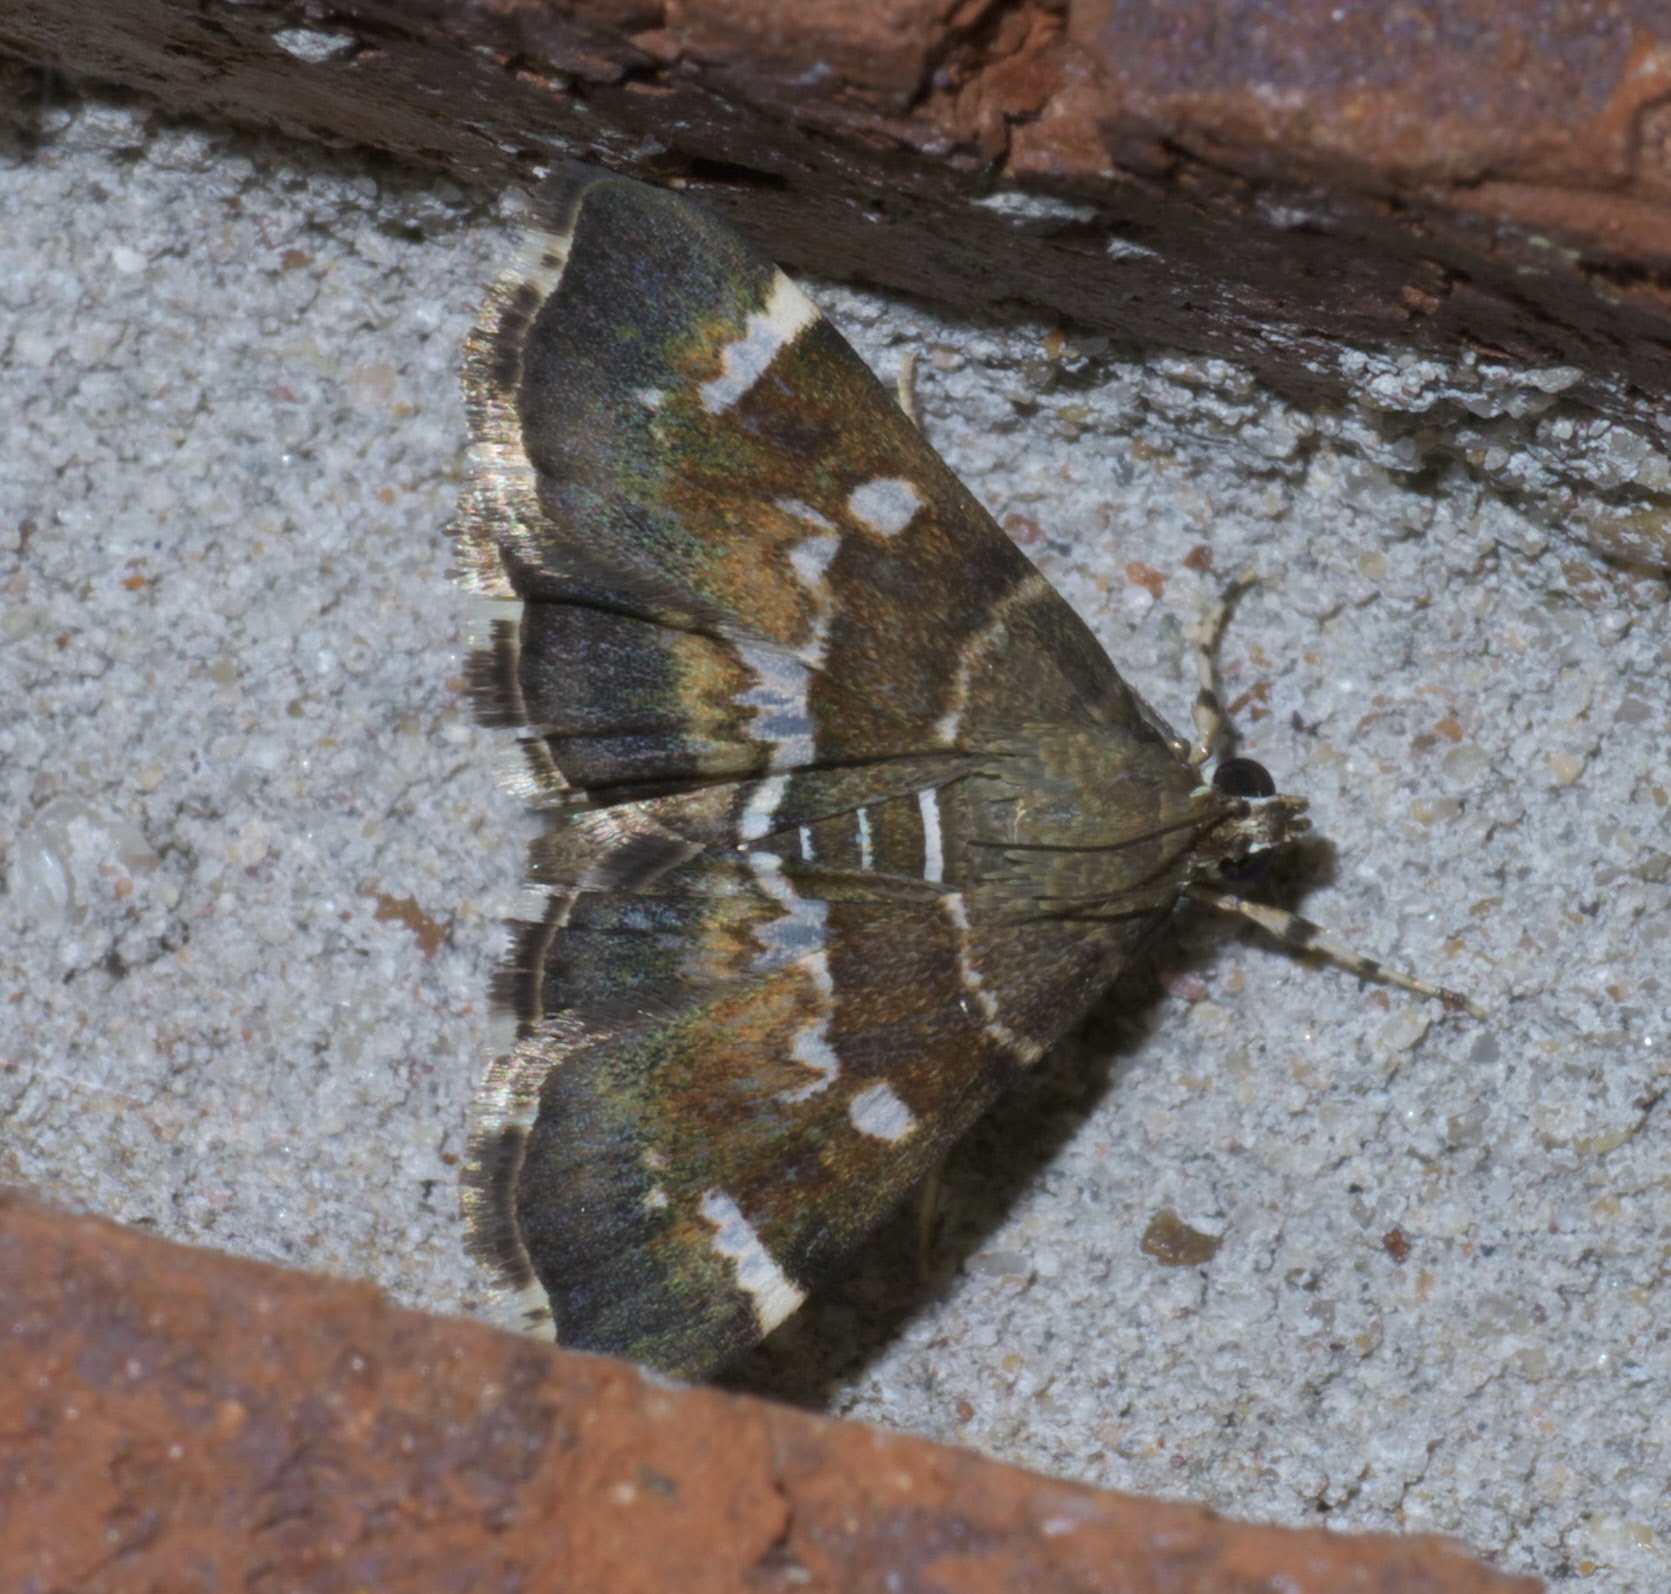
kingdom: Animalia
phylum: Arthropoda
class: Insecta
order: Lepidoptera
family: Crambidae
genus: Hymenia
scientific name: Hymenia perspectalis
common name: Spotted beet webworm
